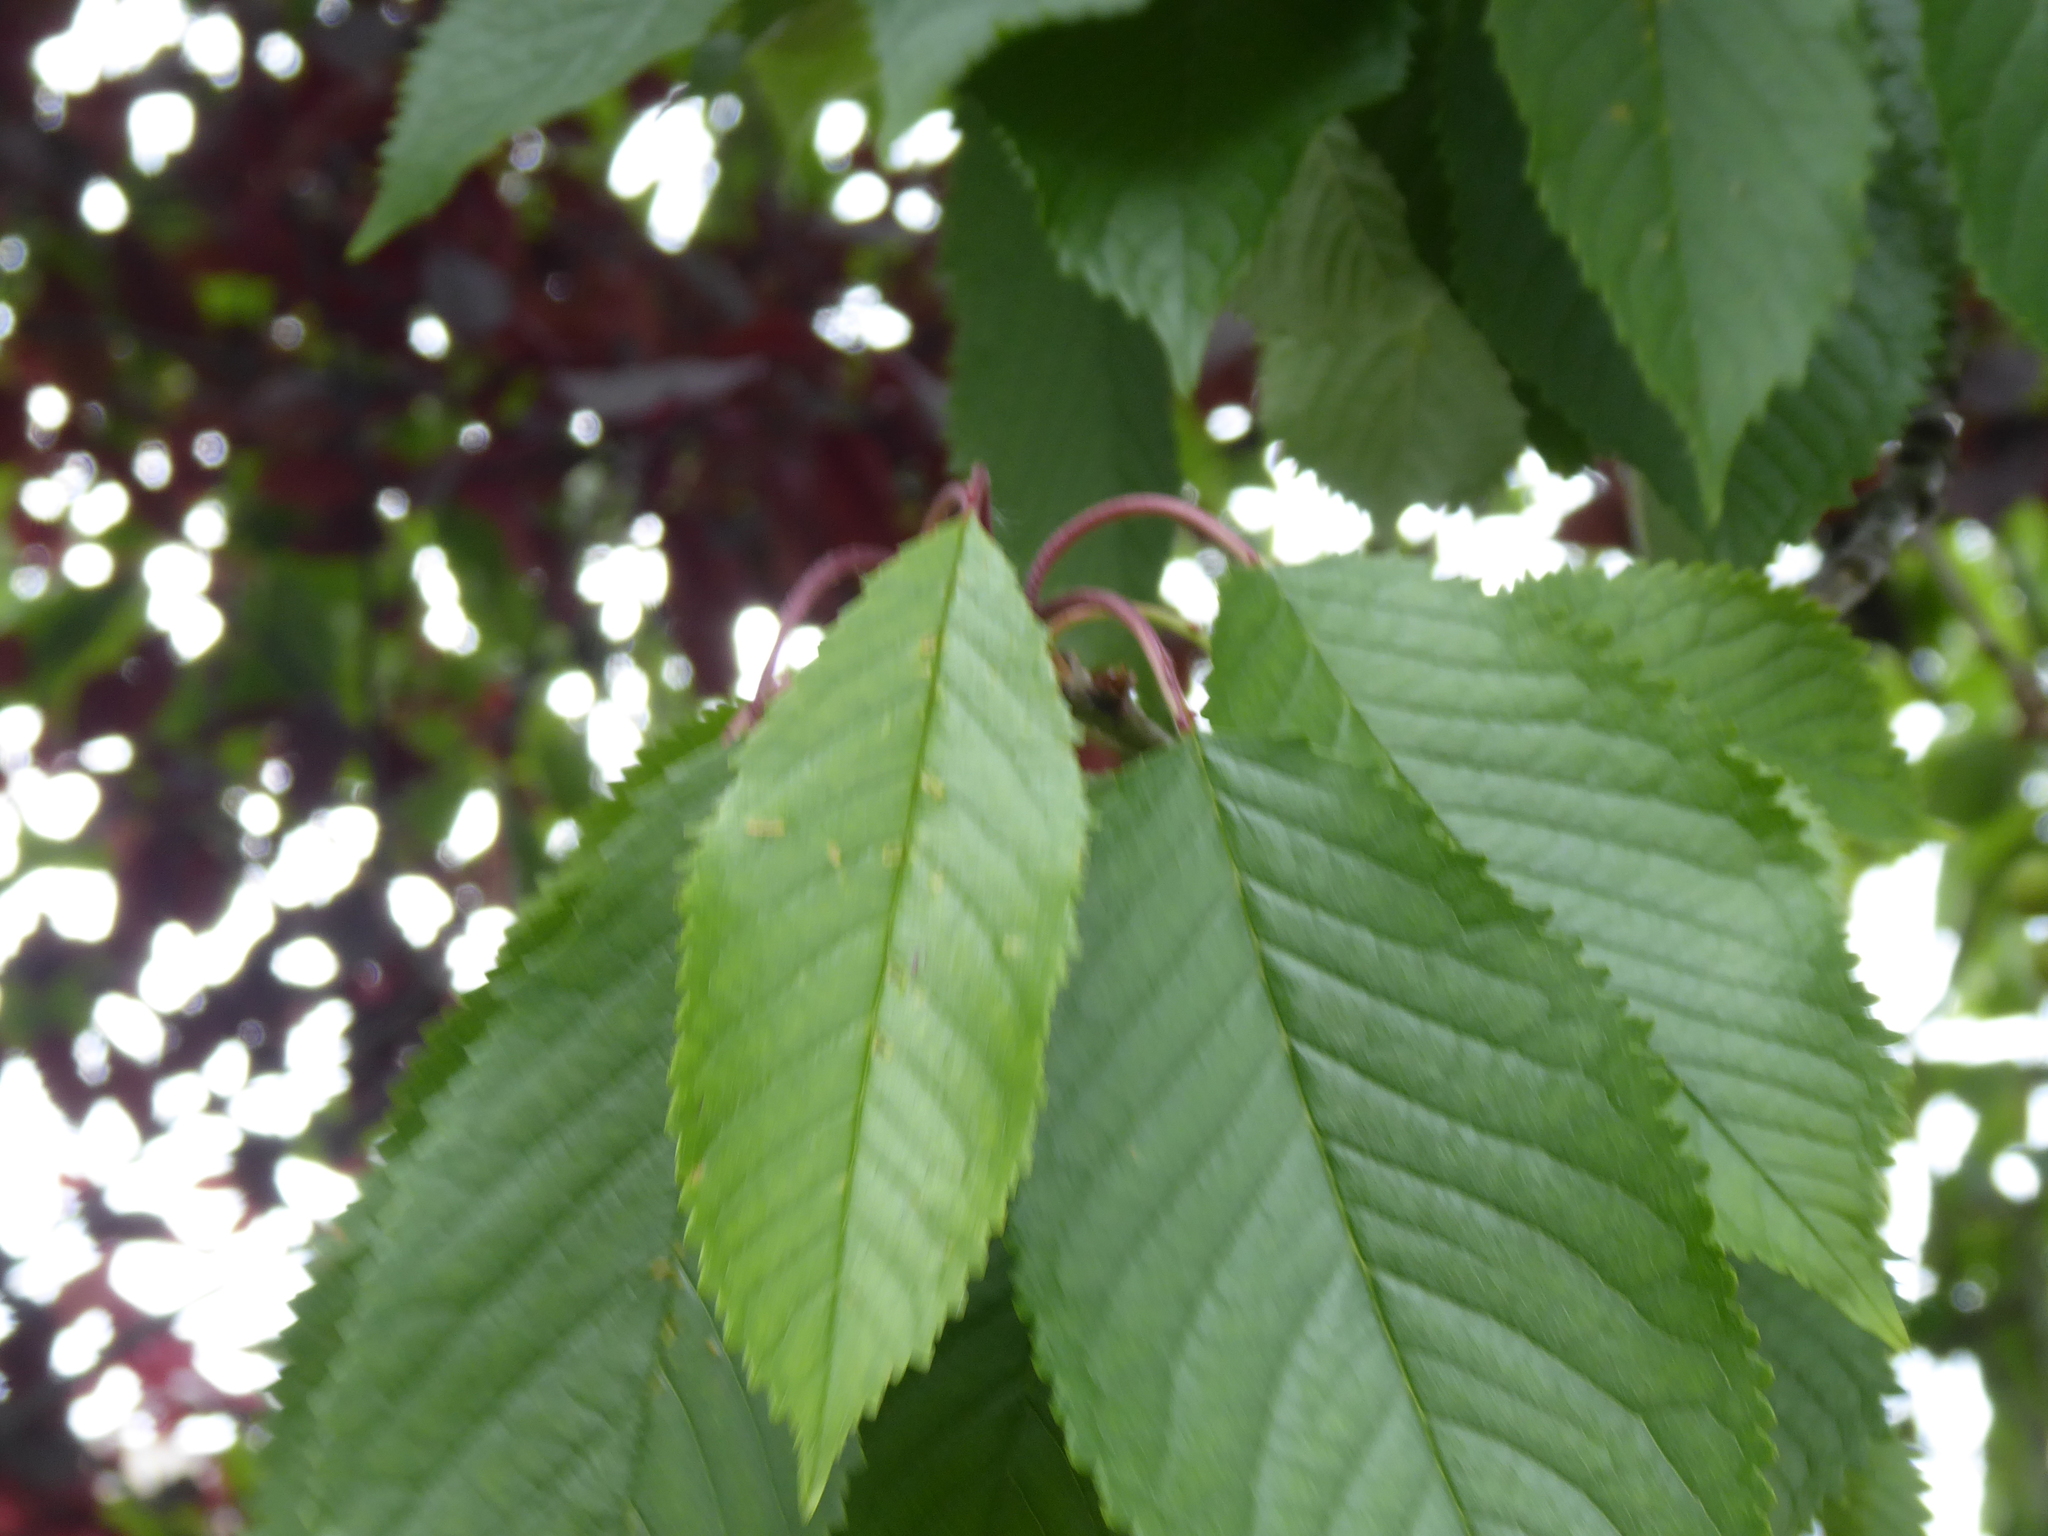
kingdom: Plantae
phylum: Tracheophyta
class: Magnoliopsida
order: Rosales
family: Rosaceae
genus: Prunus
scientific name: Prunus avium
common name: Sweet cherry
